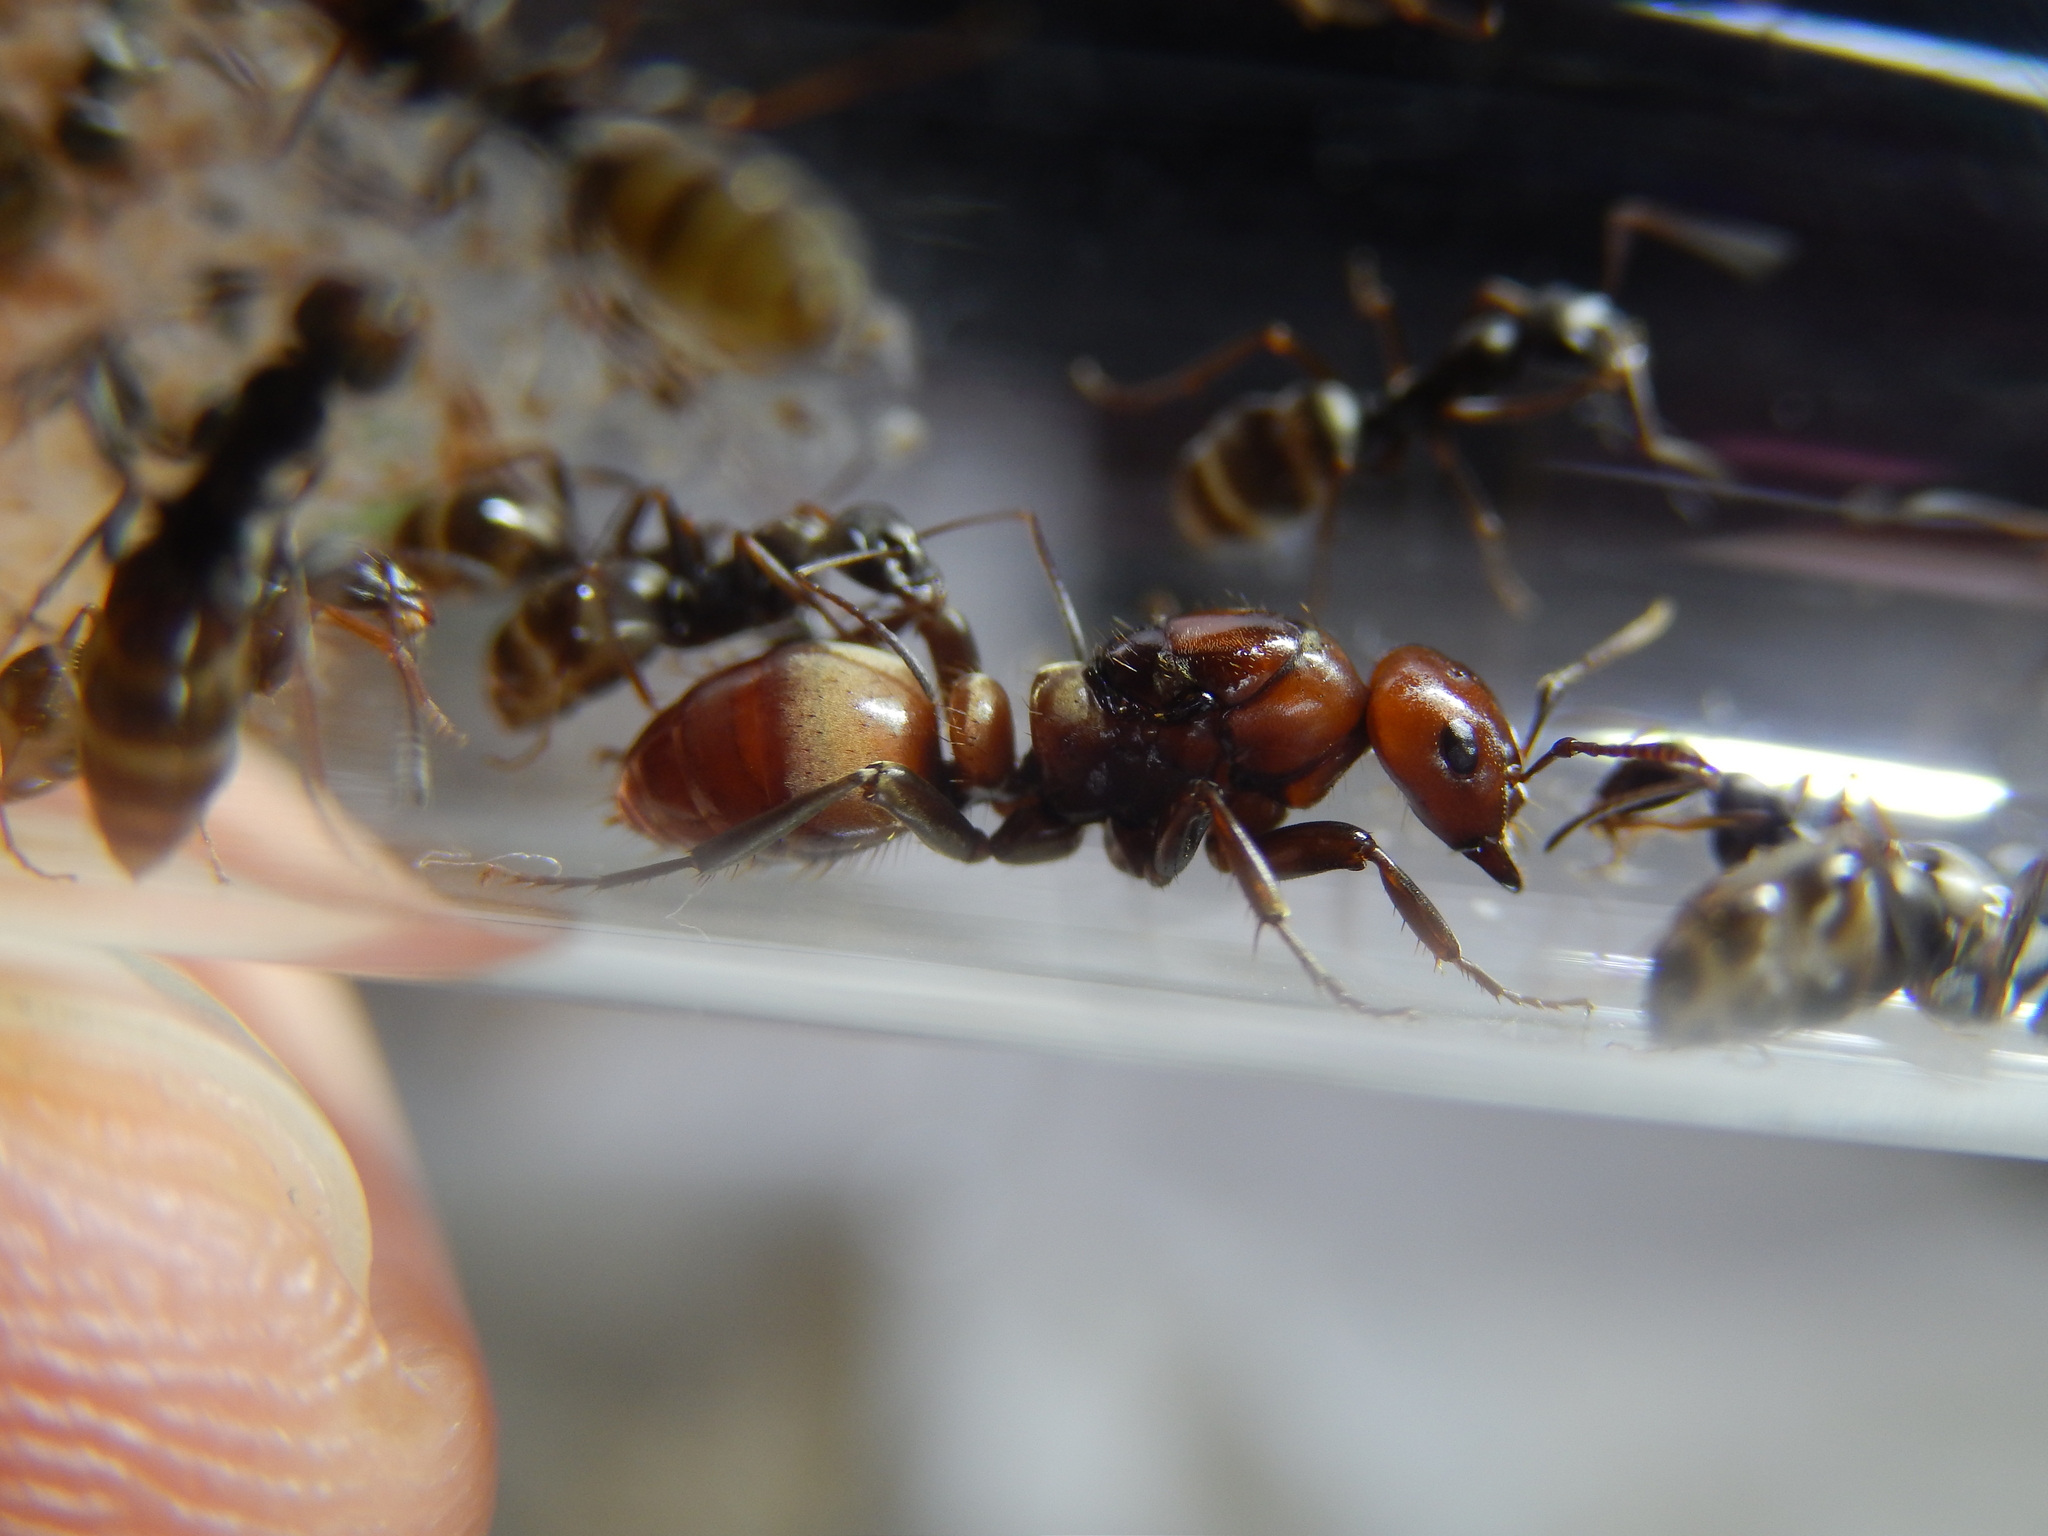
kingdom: Animalia
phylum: Arthropoda
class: Insecta
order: Hymenoptera
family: Formicidae
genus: Polyergus
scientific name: Polyergus rufescens
